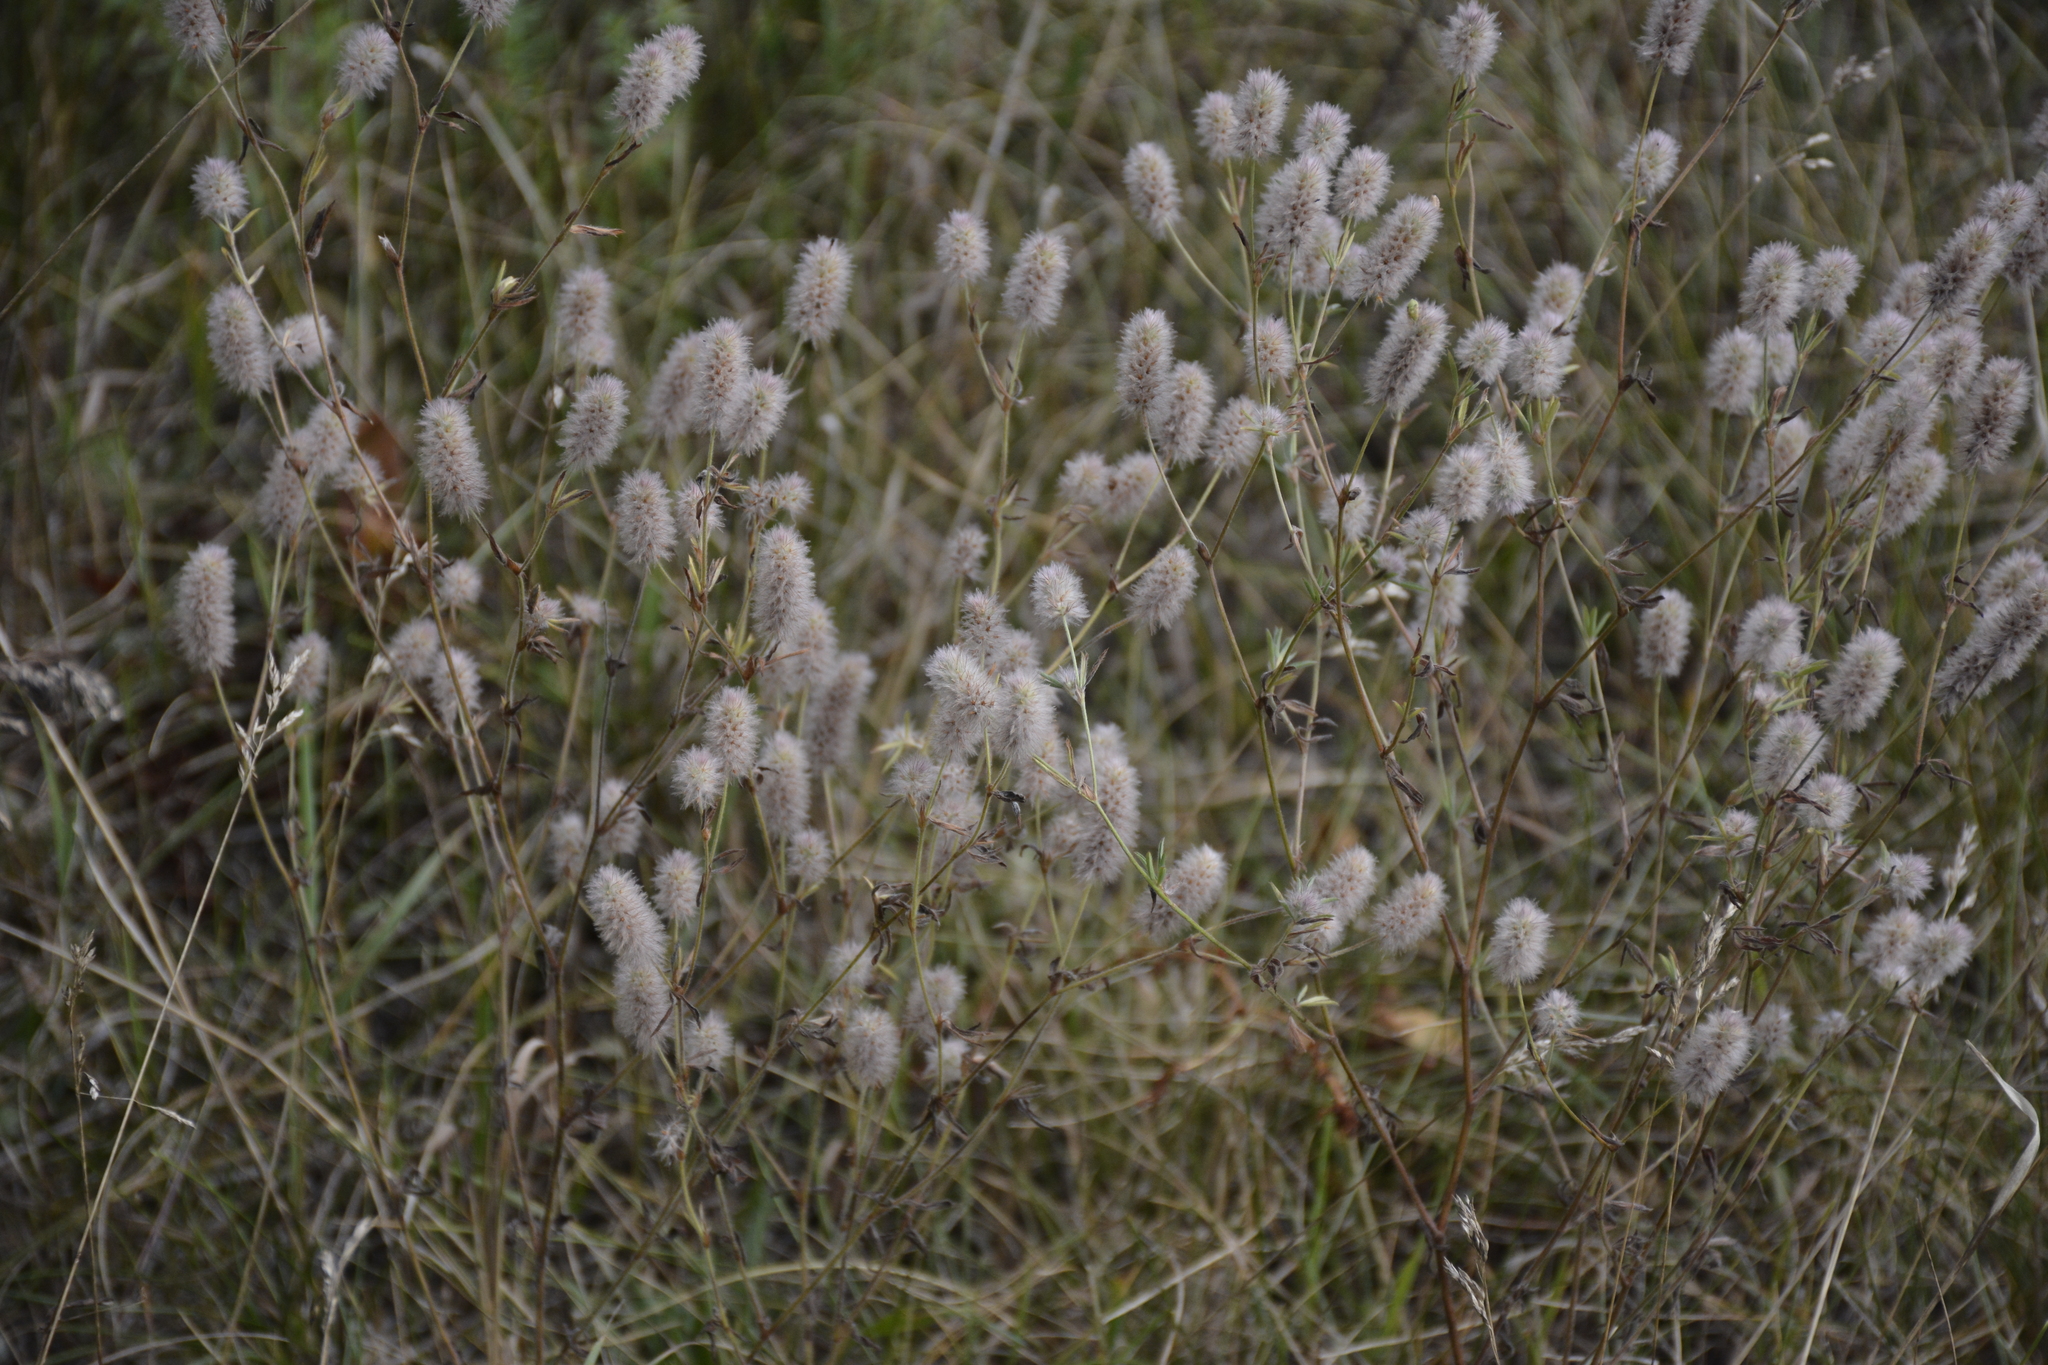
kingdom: Plantae
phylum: Tracheophyta
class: Magnoliopsida
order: Fabales
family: Fabaceae
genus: Trifolium
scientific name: Trifolium arvense
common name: Hare's-foot clover
